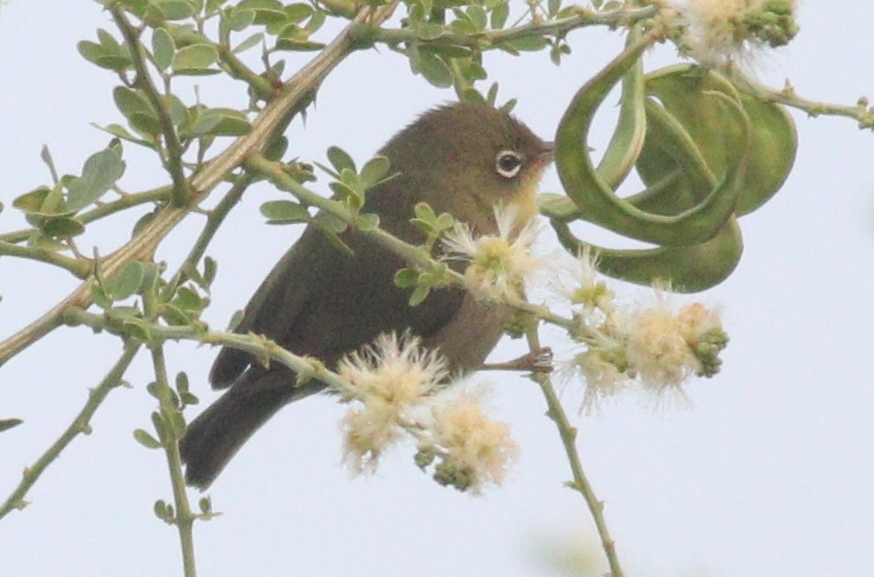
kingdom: Animalia
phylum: Chordata
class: Aves
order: Passeriformes
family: Zosteropidae
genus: Zosterops
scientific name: Zosterops abyssinicus
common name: Abyssinian white-eye
